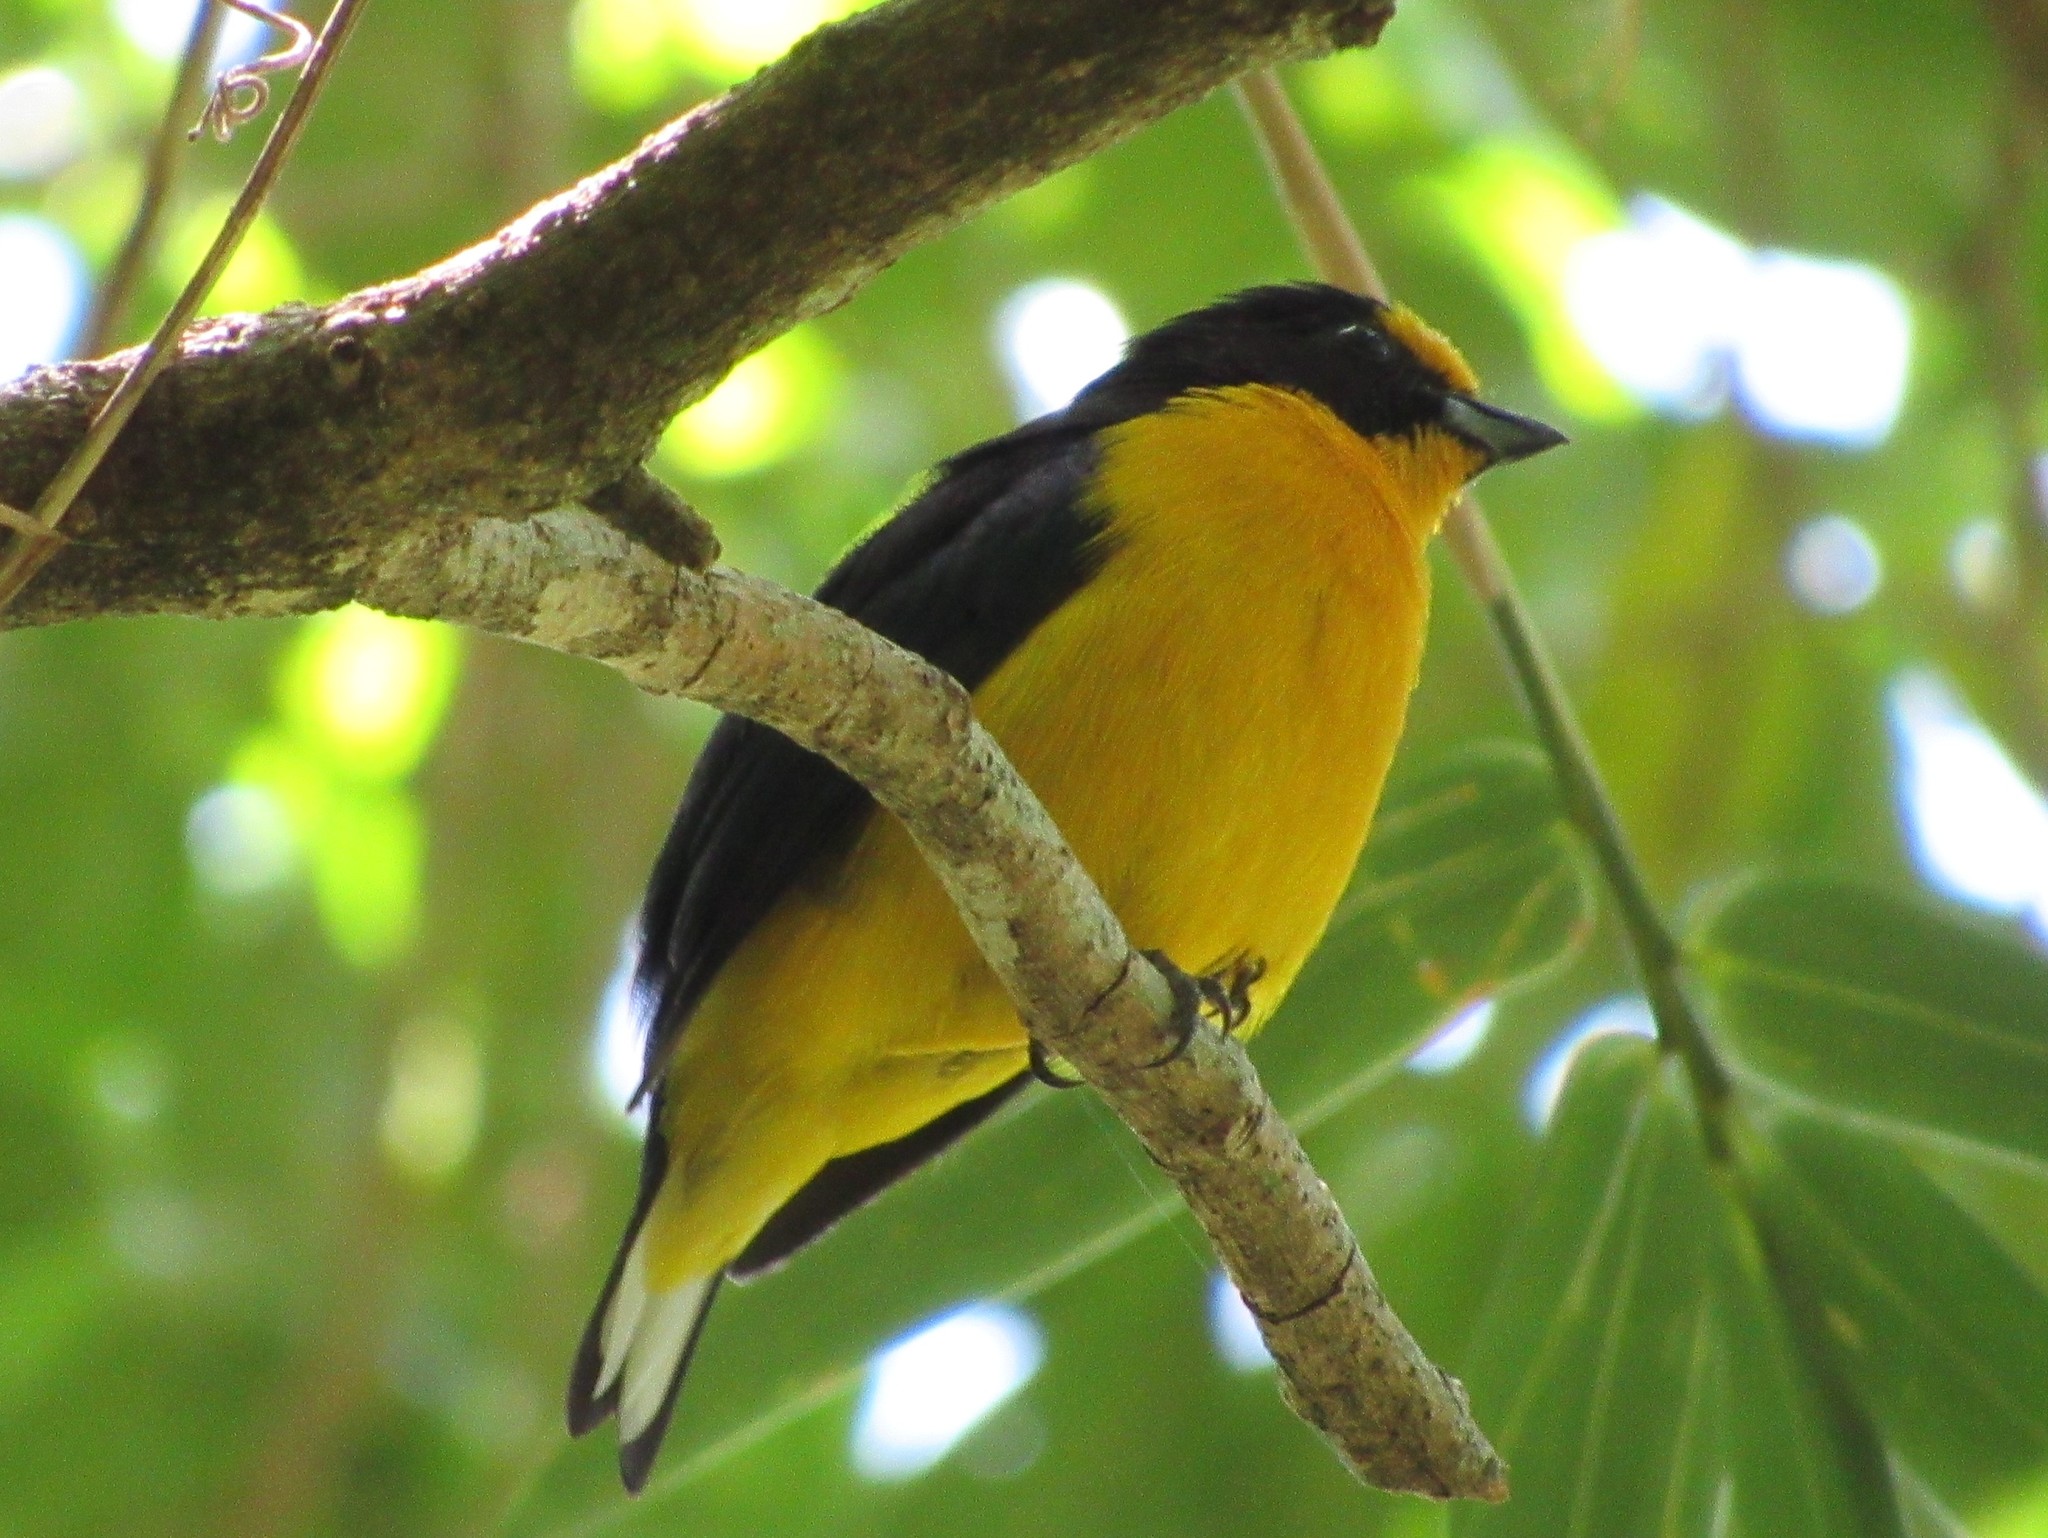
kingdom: Animalia
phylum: Chordata
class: Aves
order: Passeriformes
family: Fringillidae
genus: Euphonia
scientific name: Euphonia violacea
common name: Violaceous euphonia
